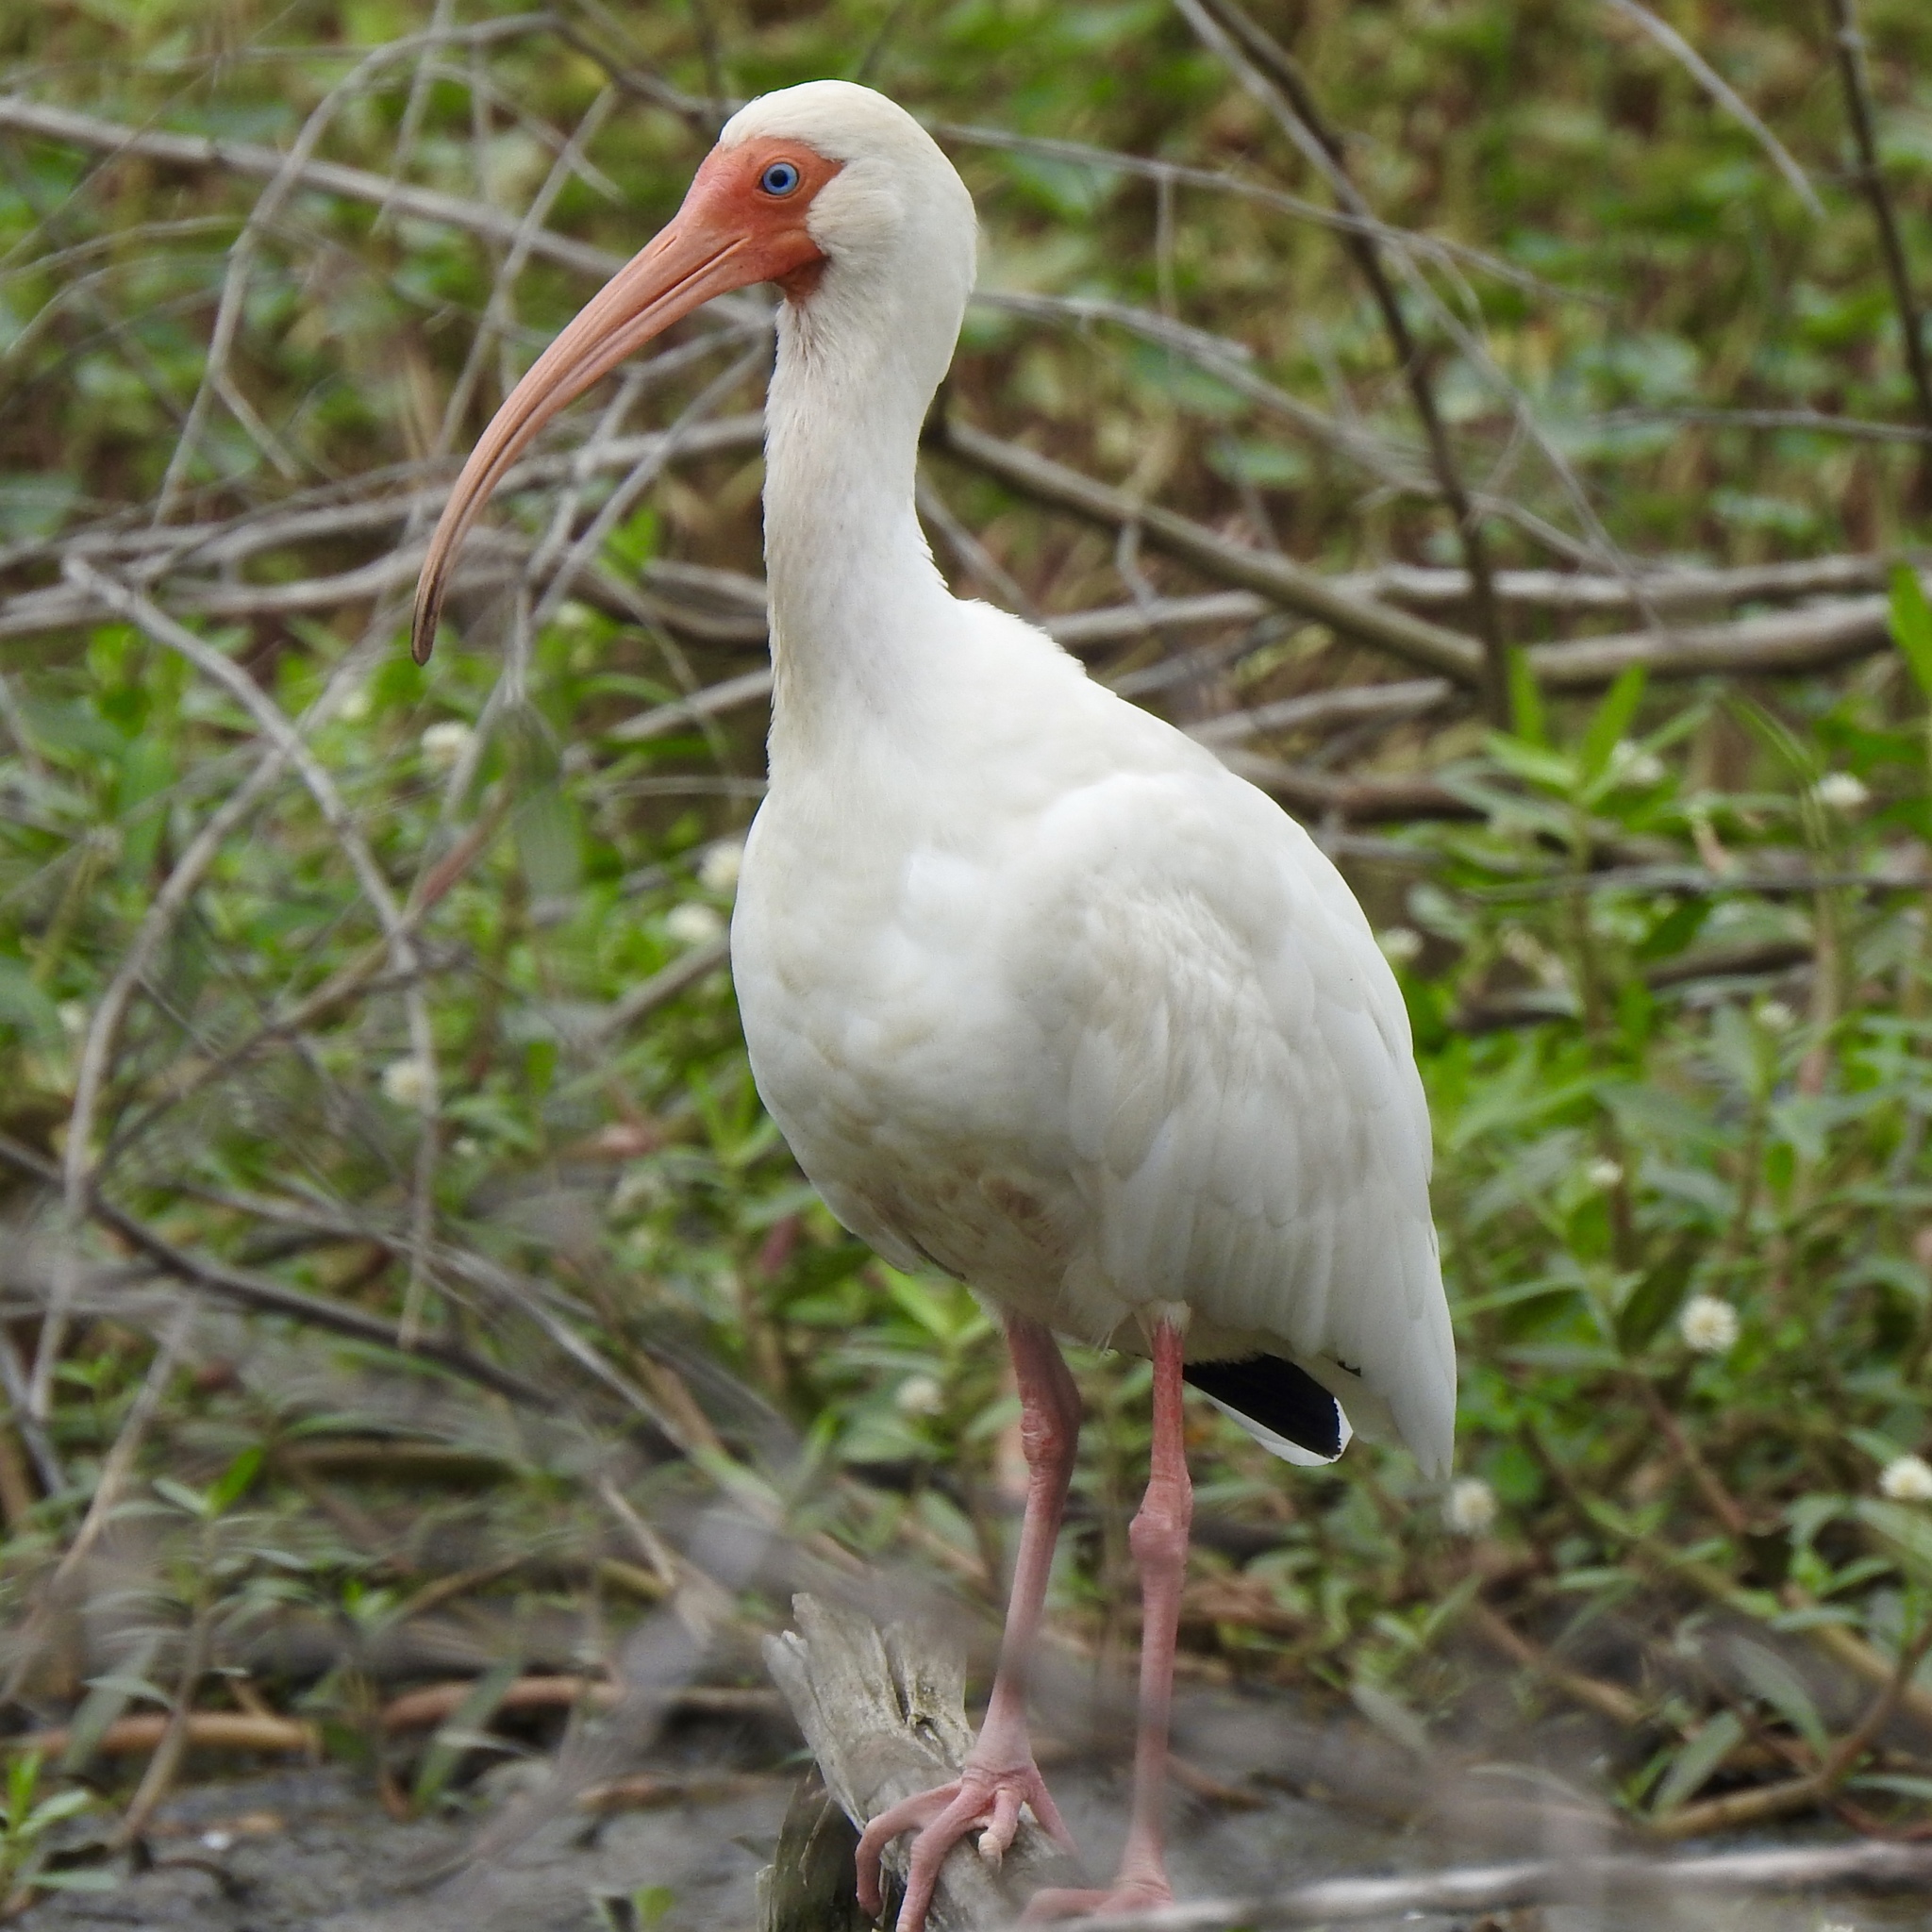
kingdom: Animalia
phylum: Chordata
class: Aves
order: Pelecaniformes
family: Threskiornithidae
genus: Eudocimus
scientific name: Eudocimus albus
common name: White ibis
